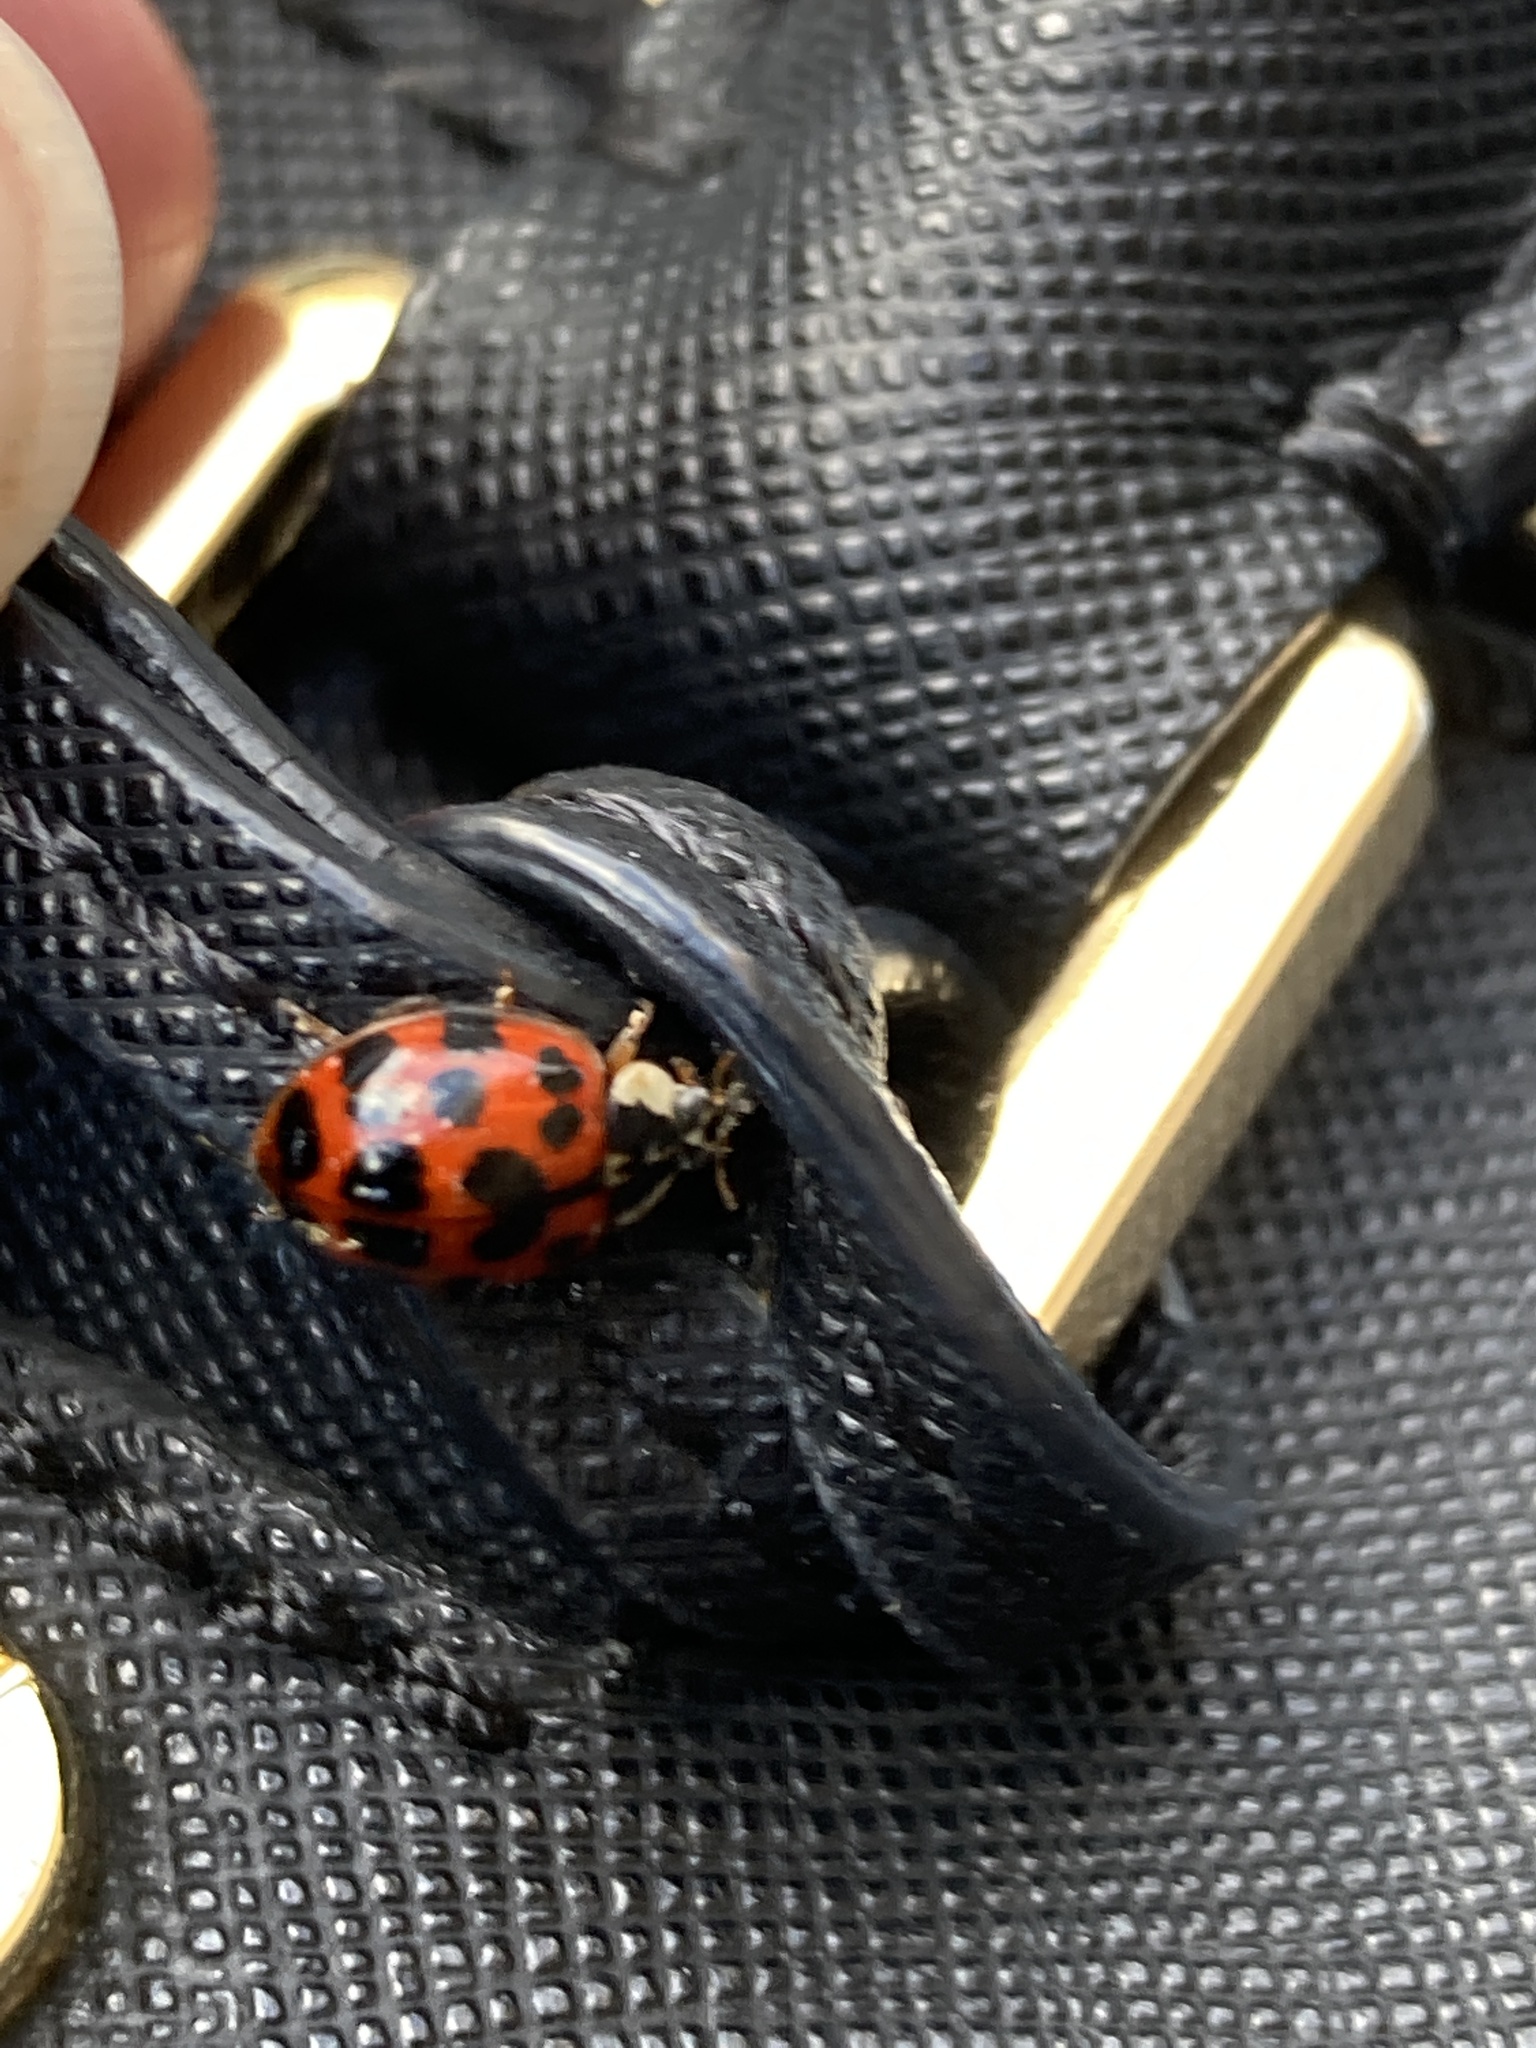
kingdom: Animalia
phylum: Arthropoda
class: Insecta
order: Coleoptera
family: Coccinellidae
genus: Harmonia
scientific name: Harmonia axyridis
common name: Harlequin ladybird
